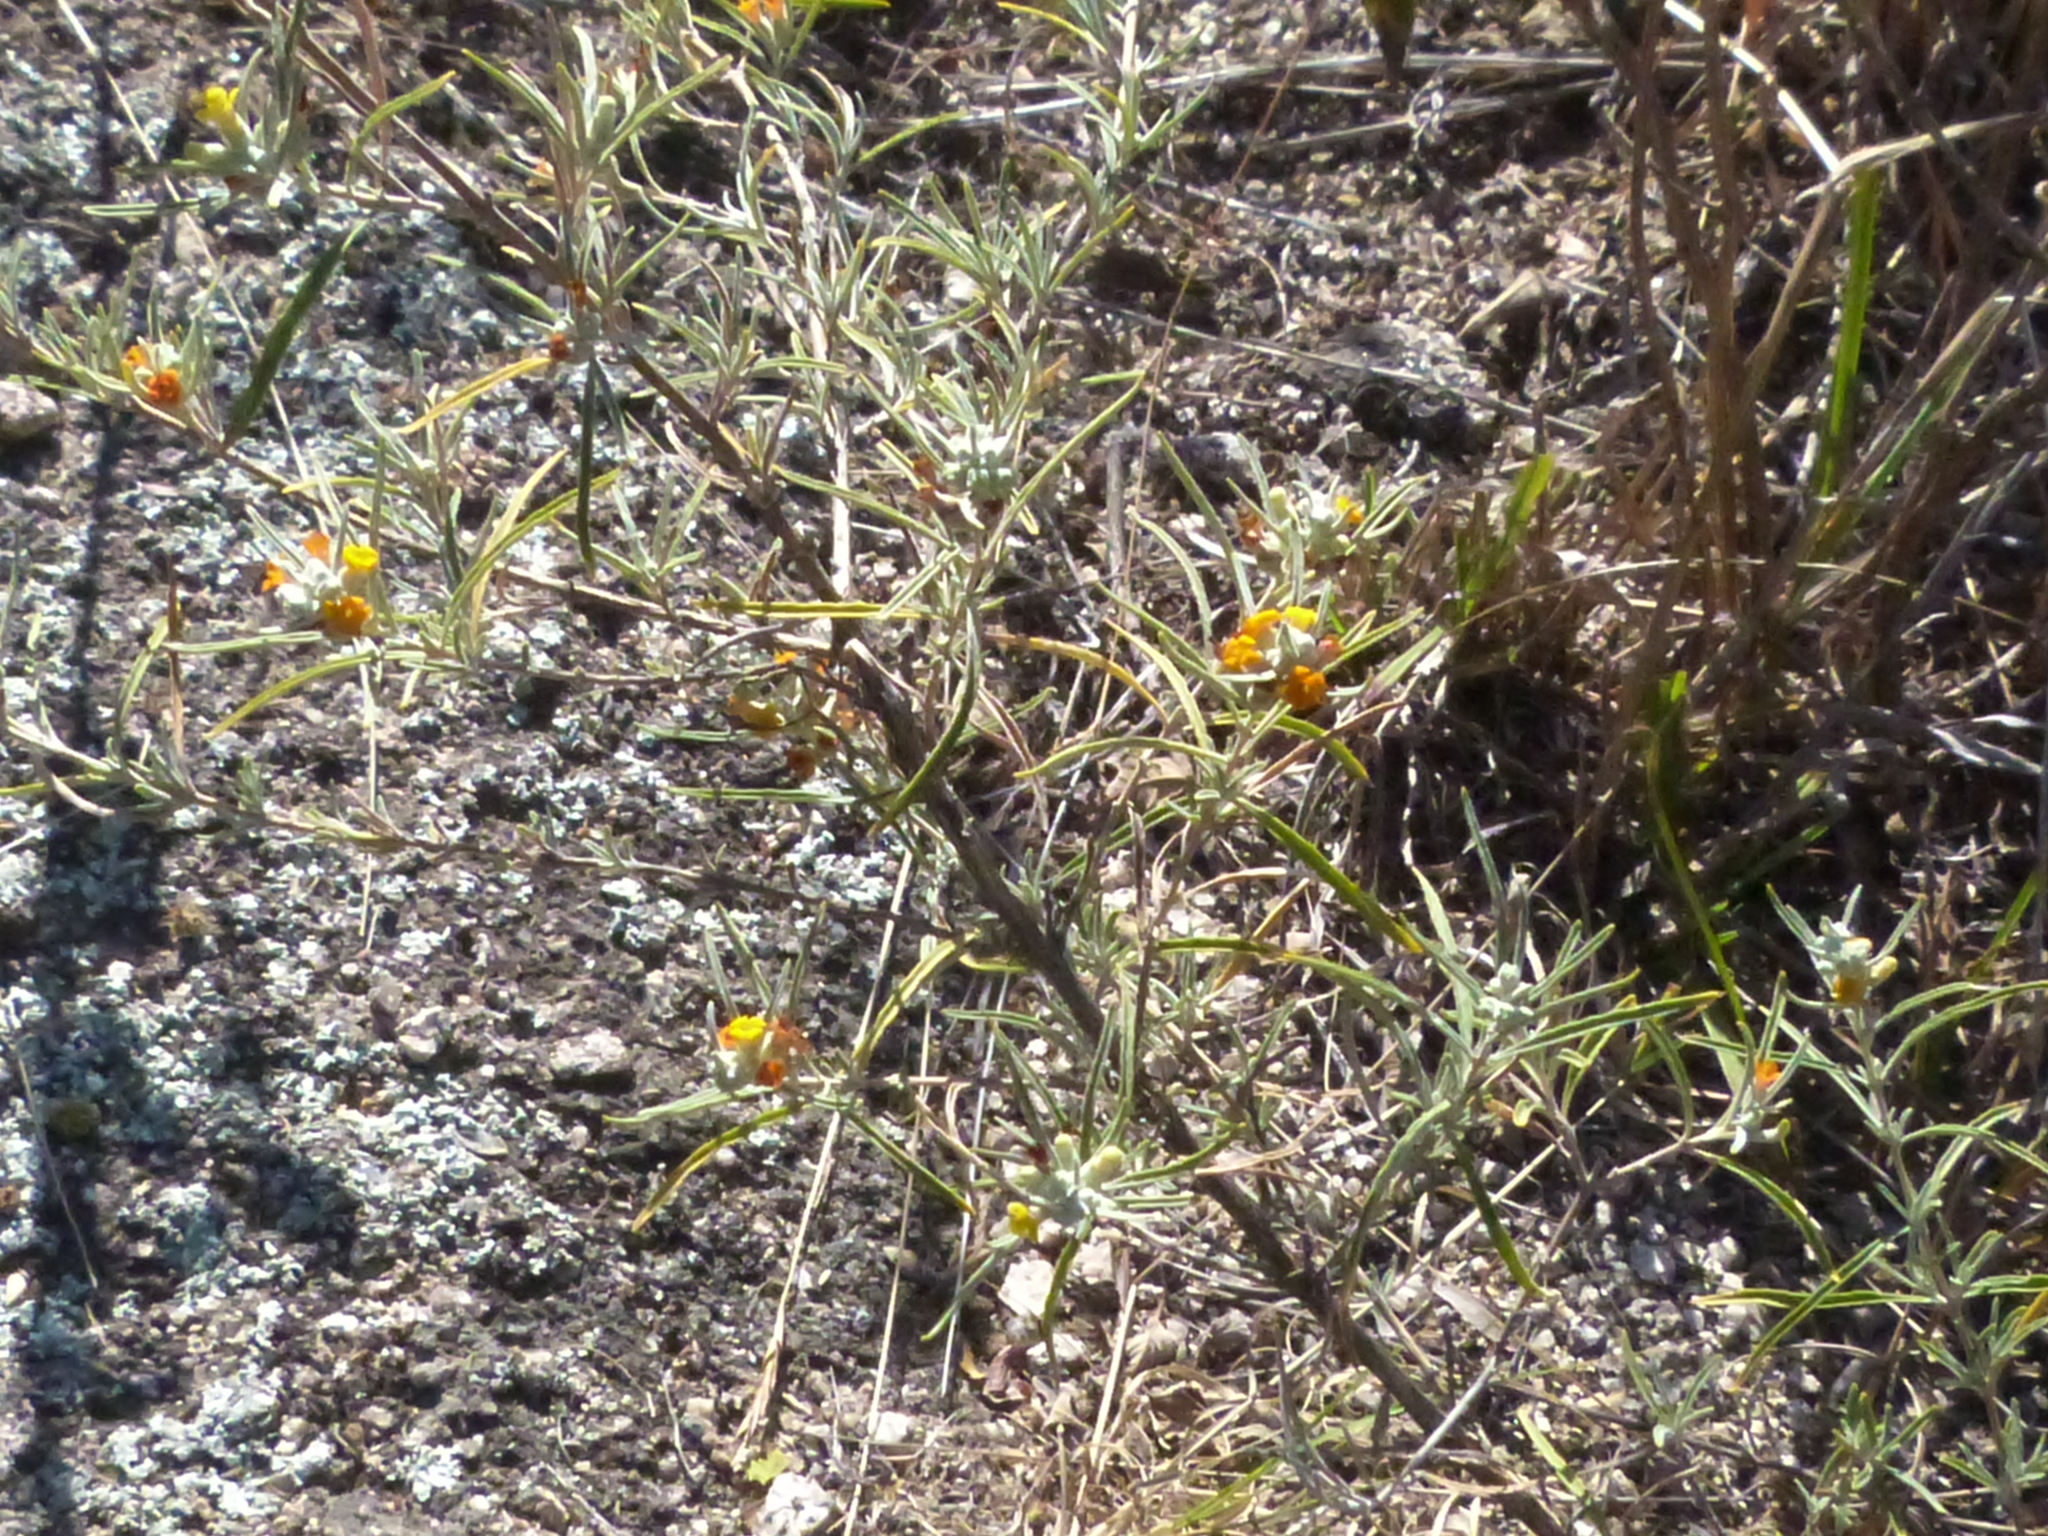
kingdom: Plantae
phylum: Tracheophyta
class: Magnoliopsida
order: Lamiales
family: Scrophulariaceae
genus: Buddleja
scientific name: Buddleja mendozensis
